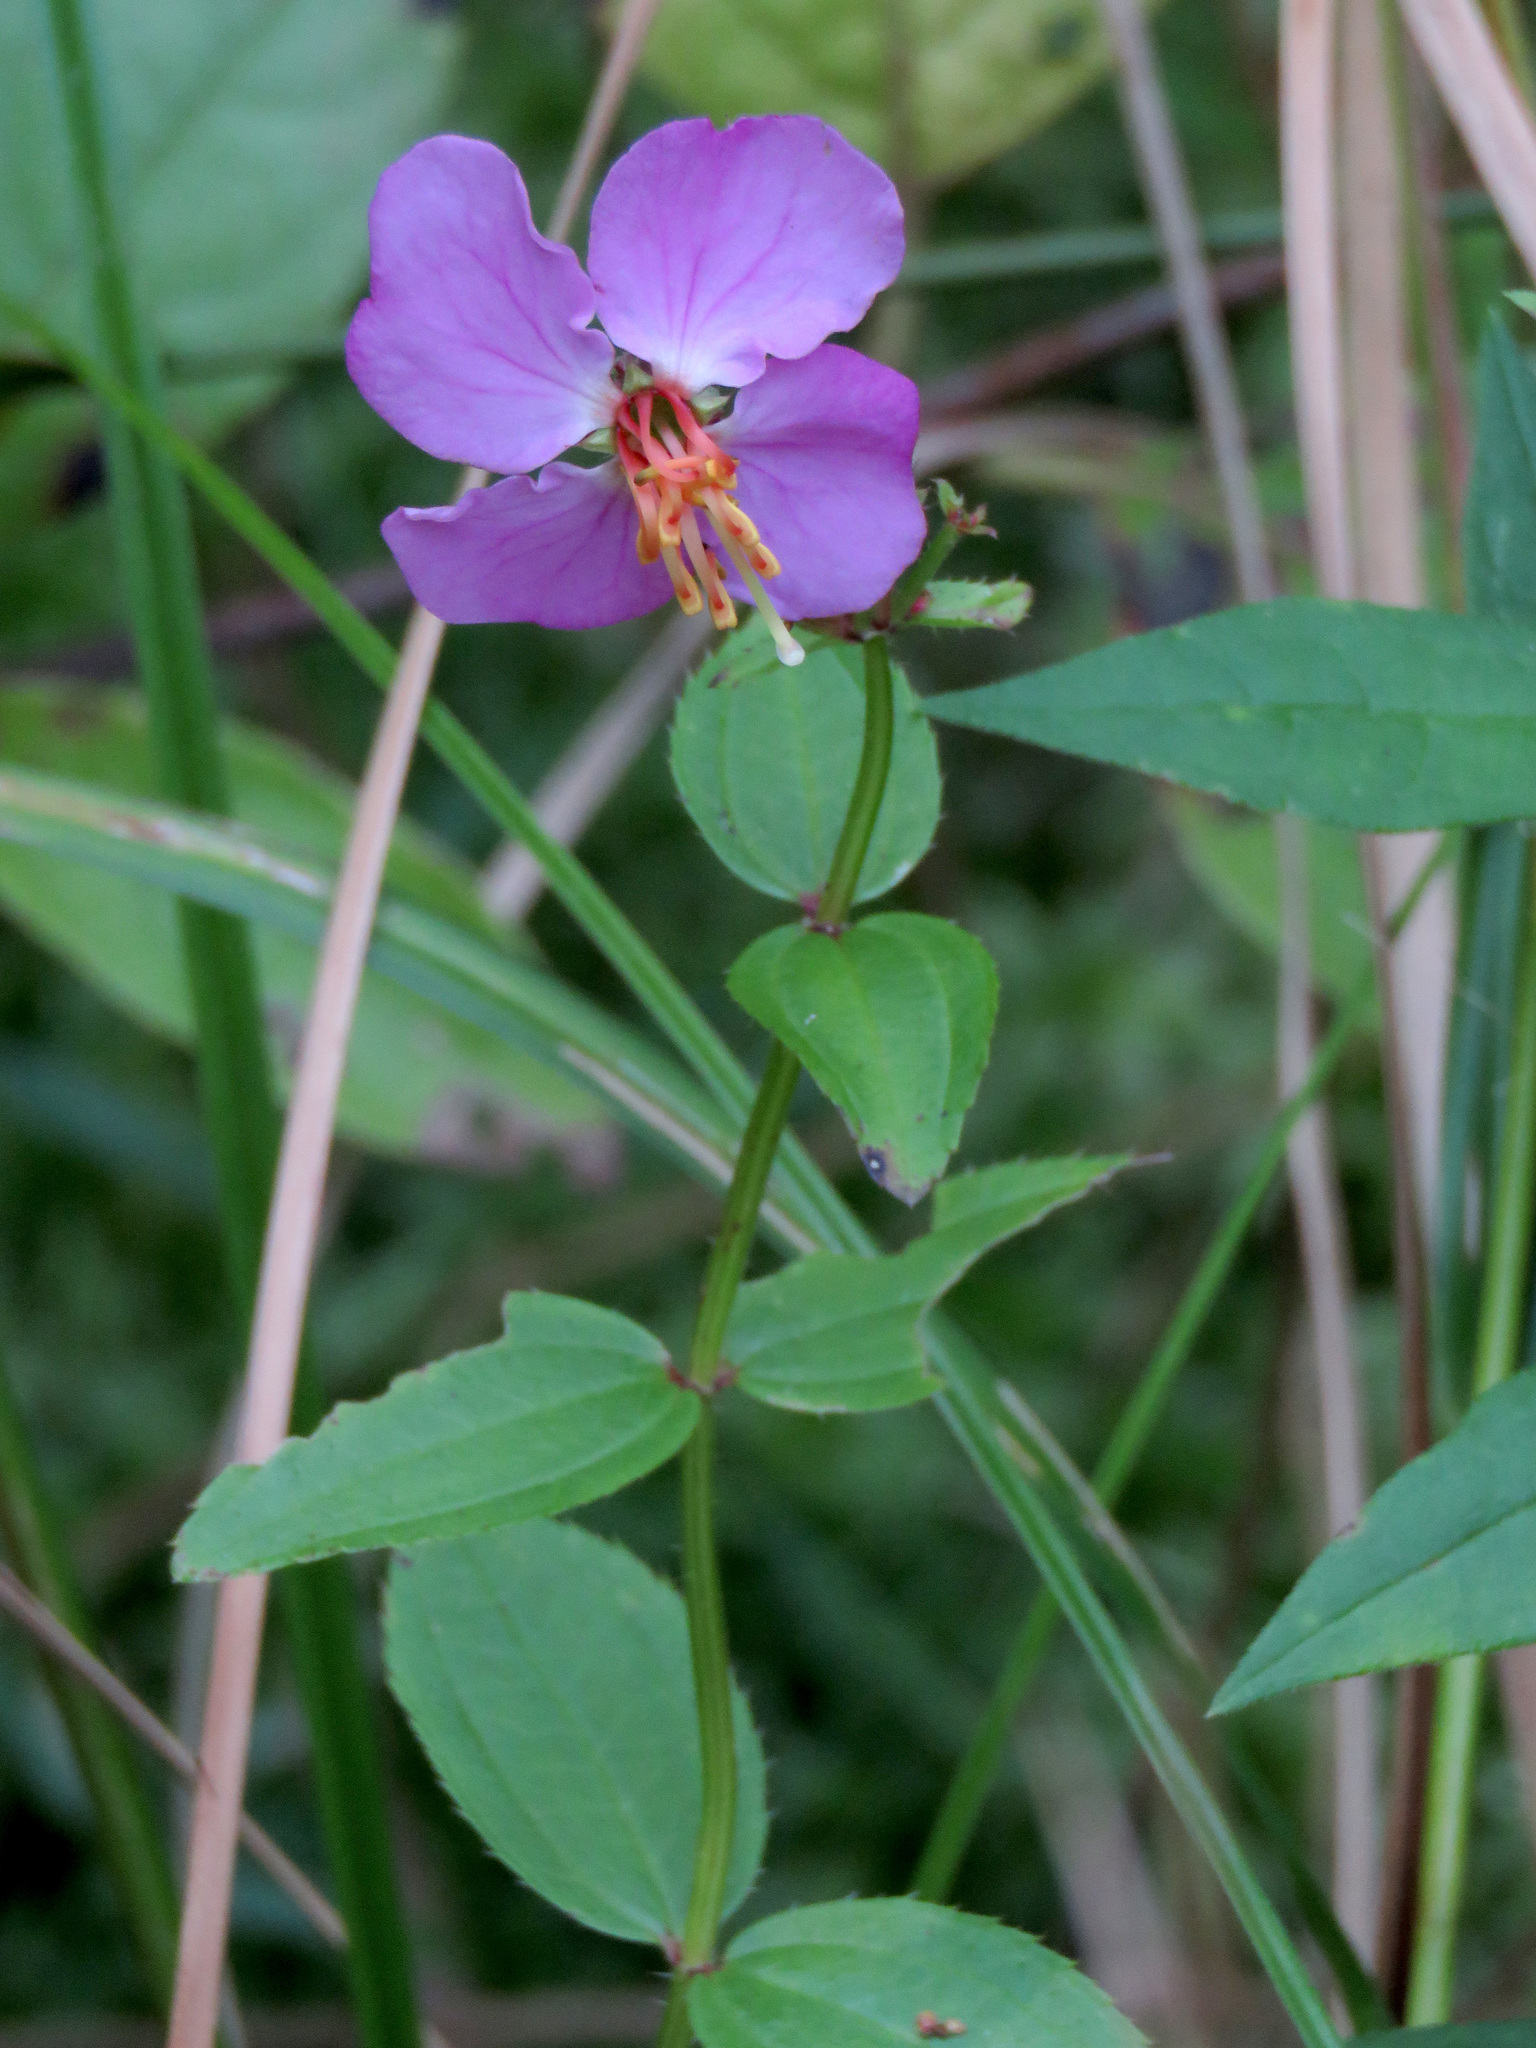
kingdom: Plantae
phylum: Tracheophyta
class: Magnoliopsida
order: Myrtales
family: Melastomataceae
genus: Rhexia
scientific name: Rhexia virginica
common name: Common meadow beauty
